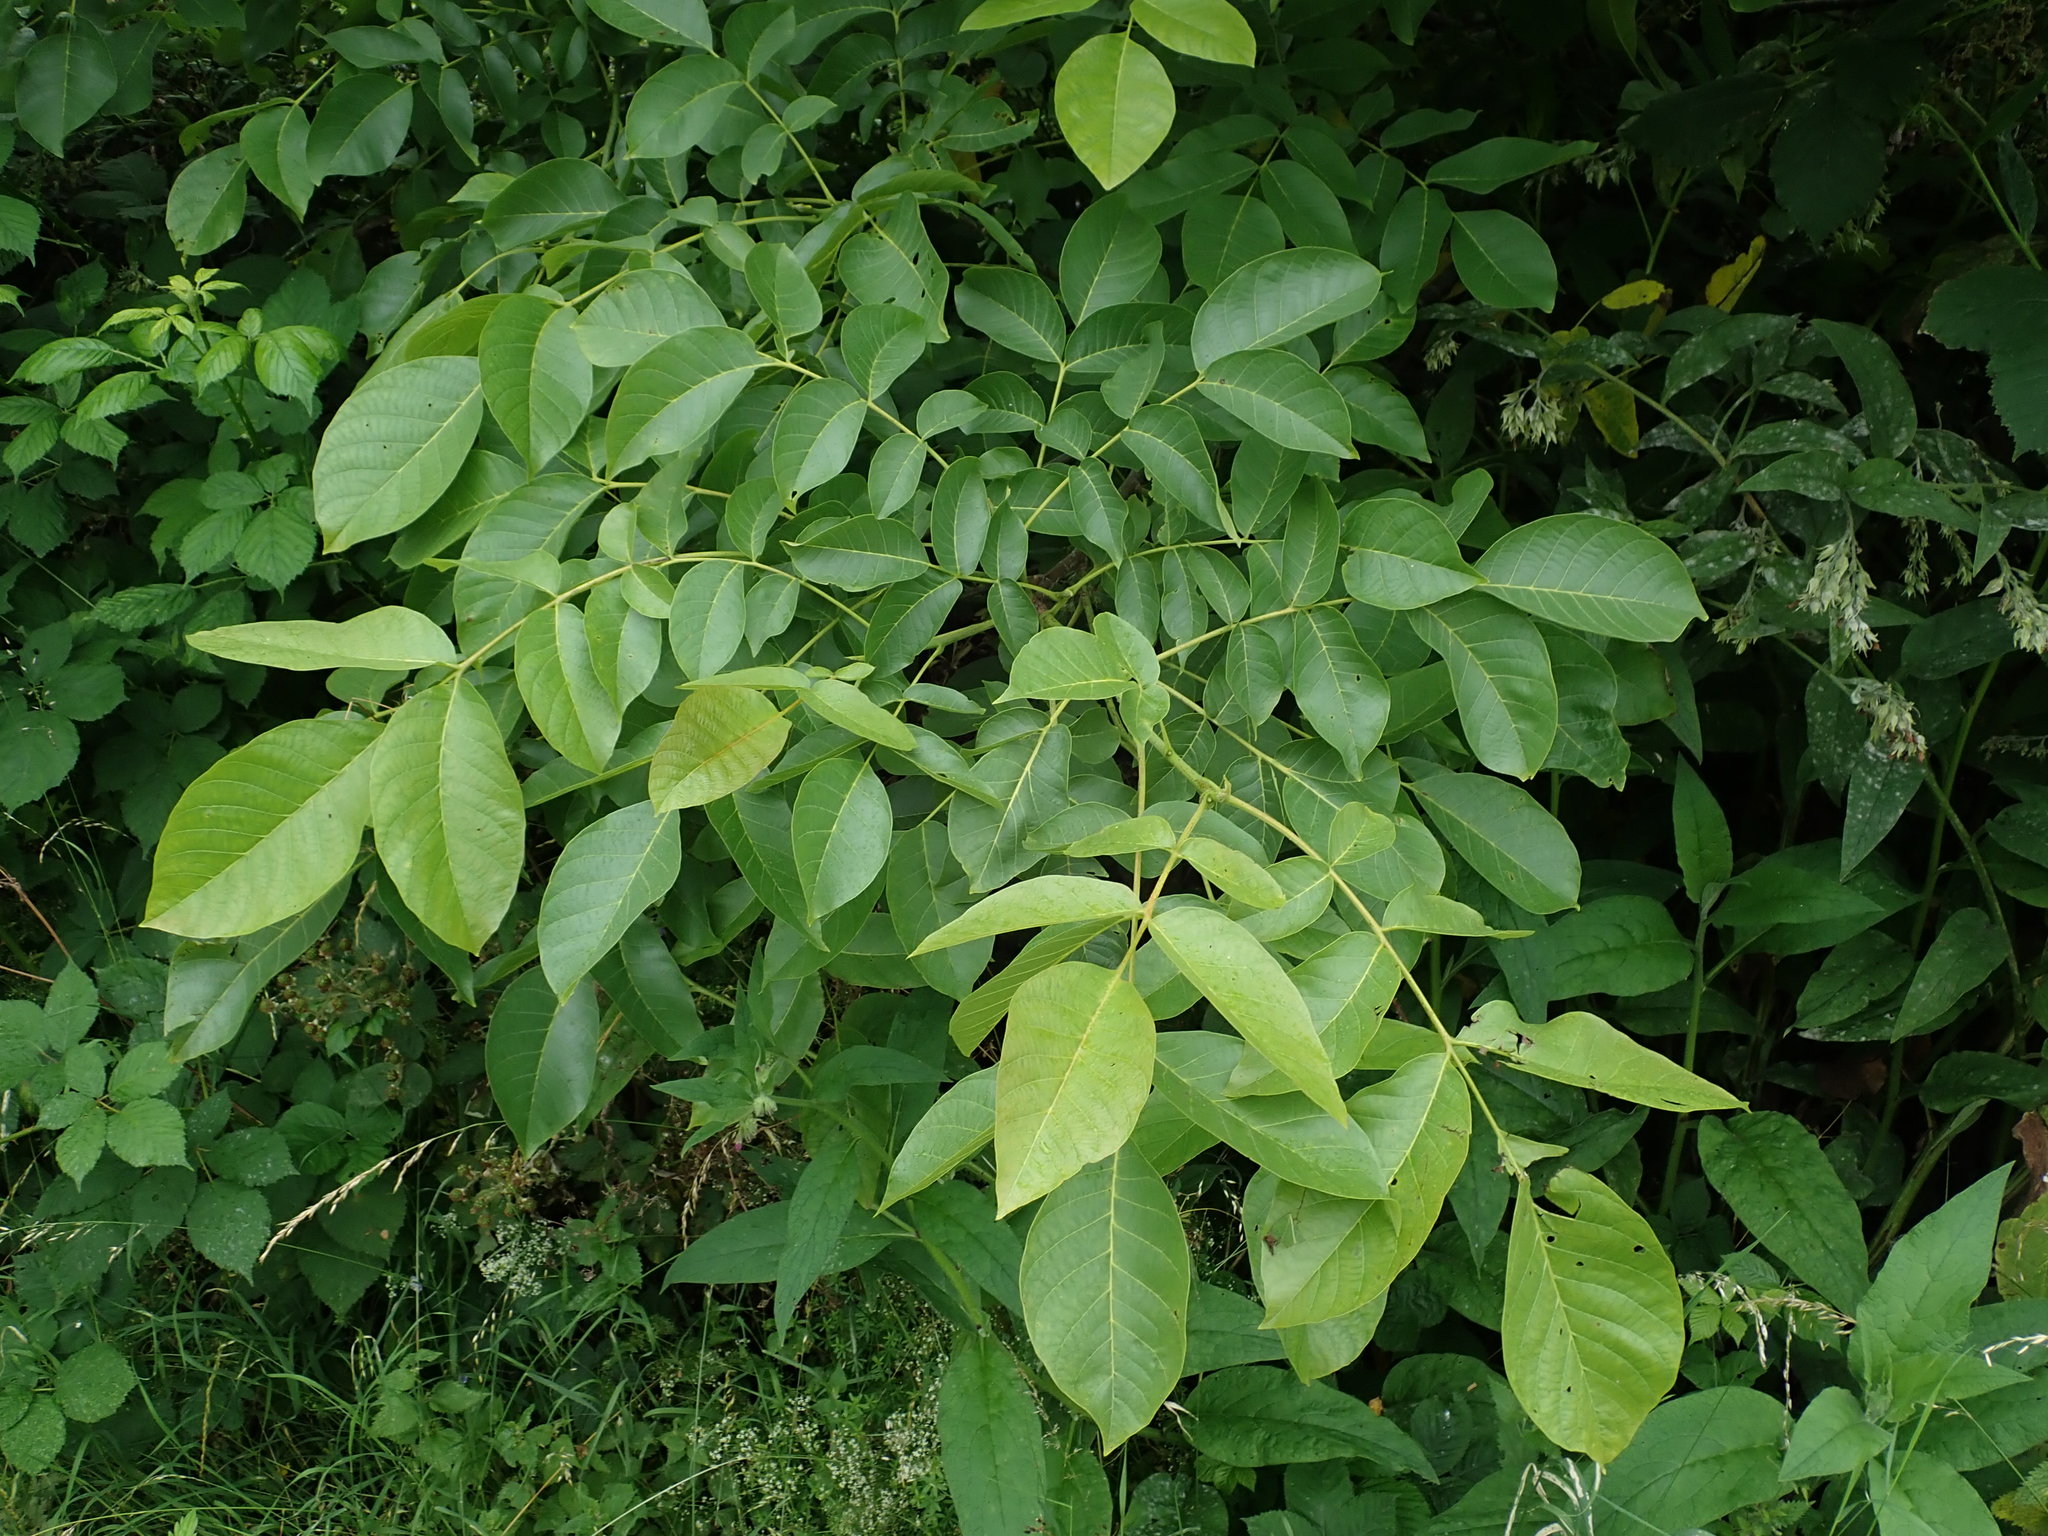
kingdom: Plantae
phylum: Tracheophyta
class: Magnoliopsida
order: Fagales
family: Juglandaceae
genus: Juglans
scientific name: Juglans regia
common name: Walnut
